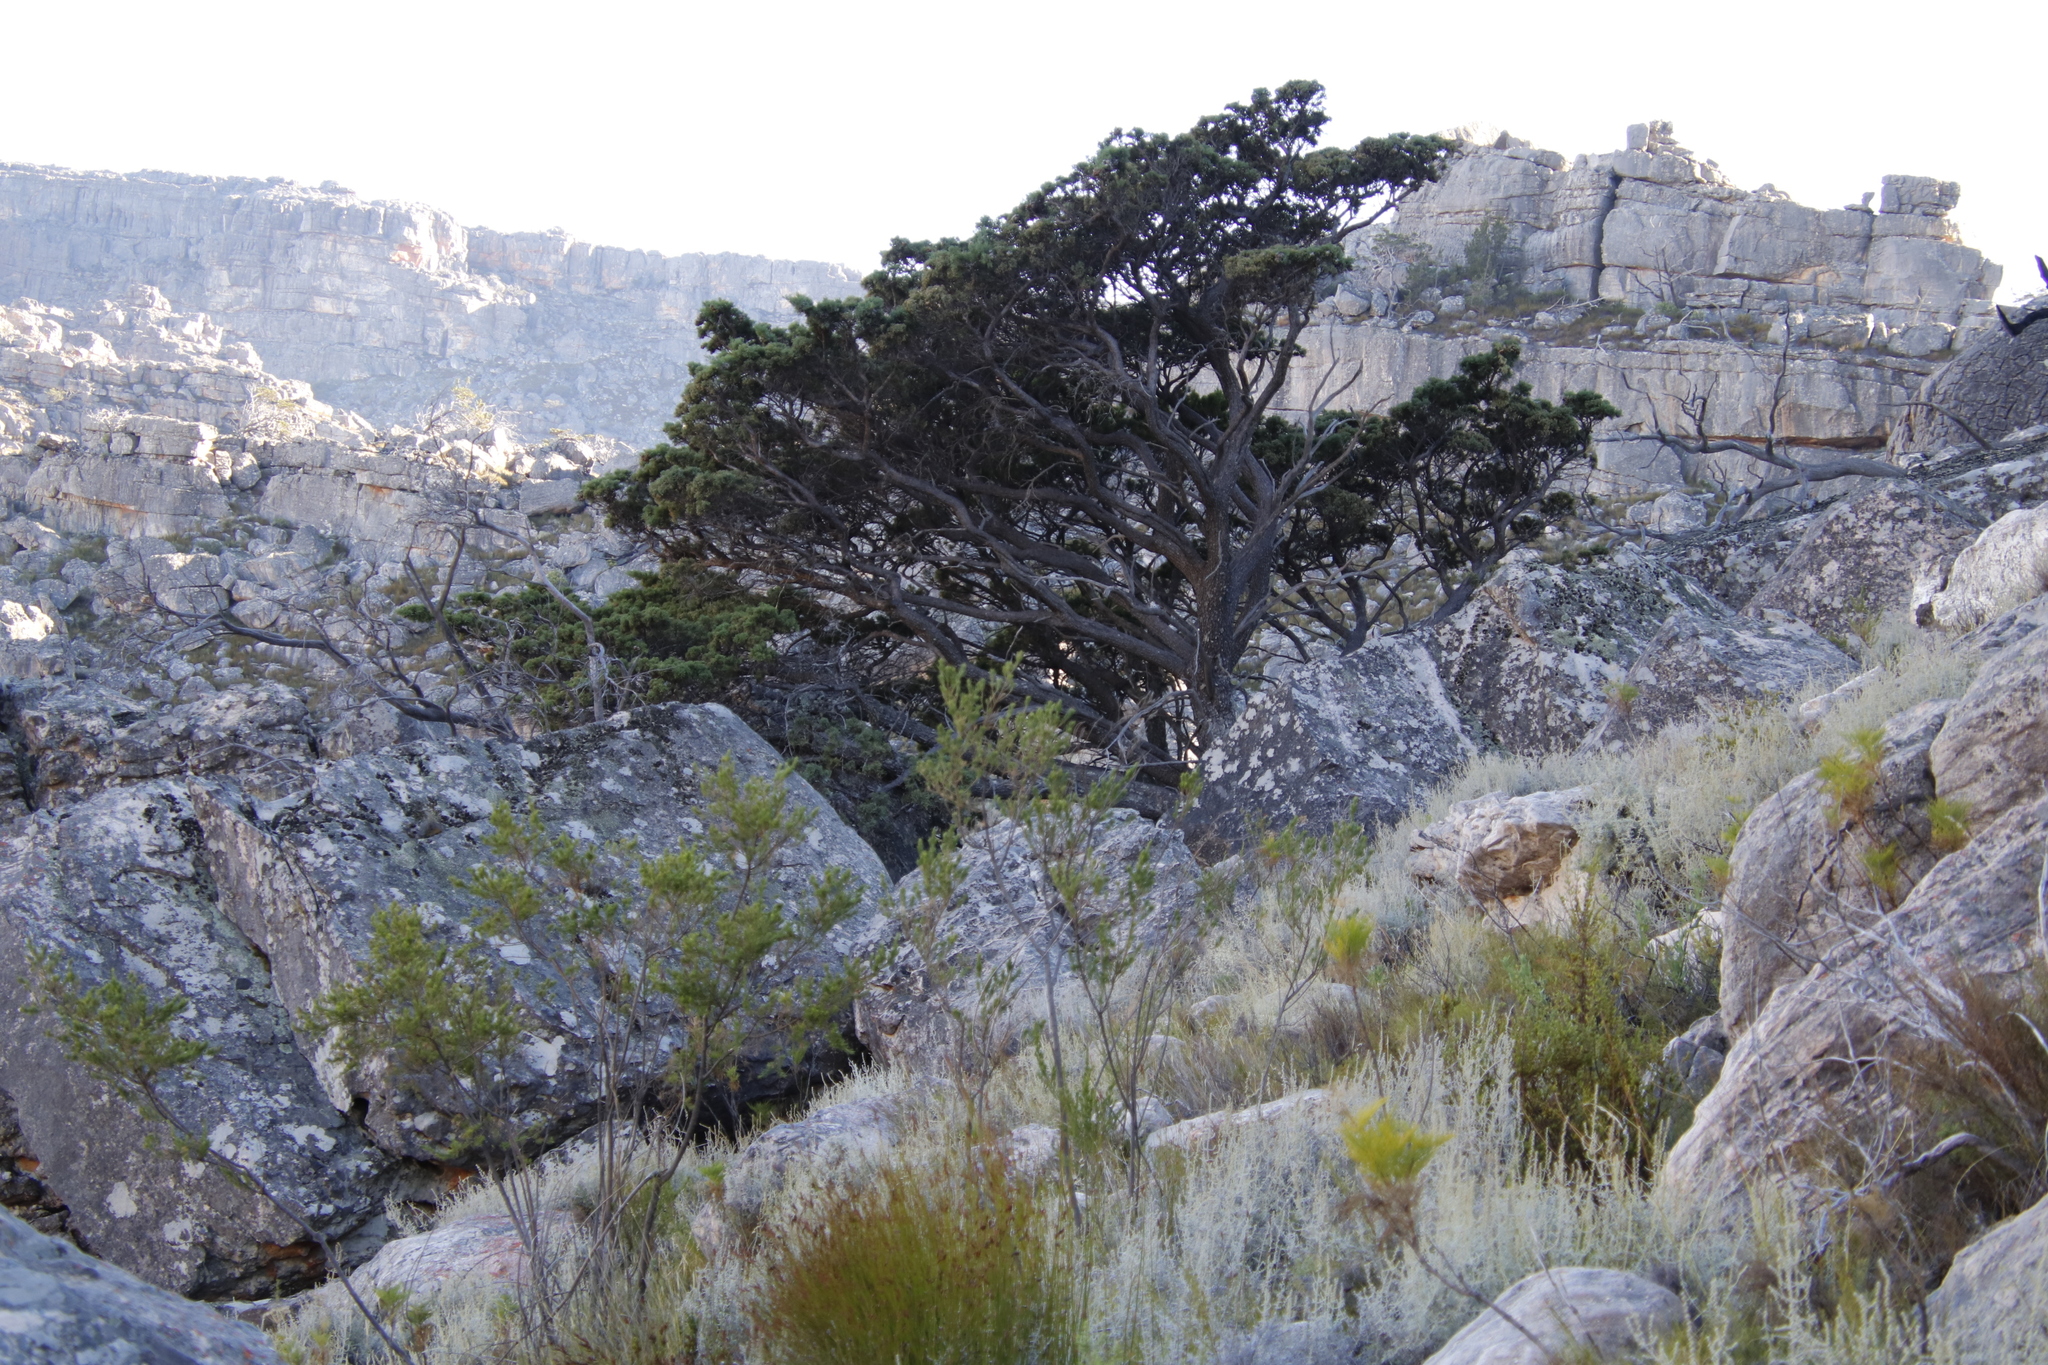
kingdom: Plantae
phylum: Tracheophyta
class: Pinopsida
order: Pinales
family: Cupressaceae
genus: Widdringtonia
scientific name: Widdringtonia nodiflora
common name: Cape cypress
